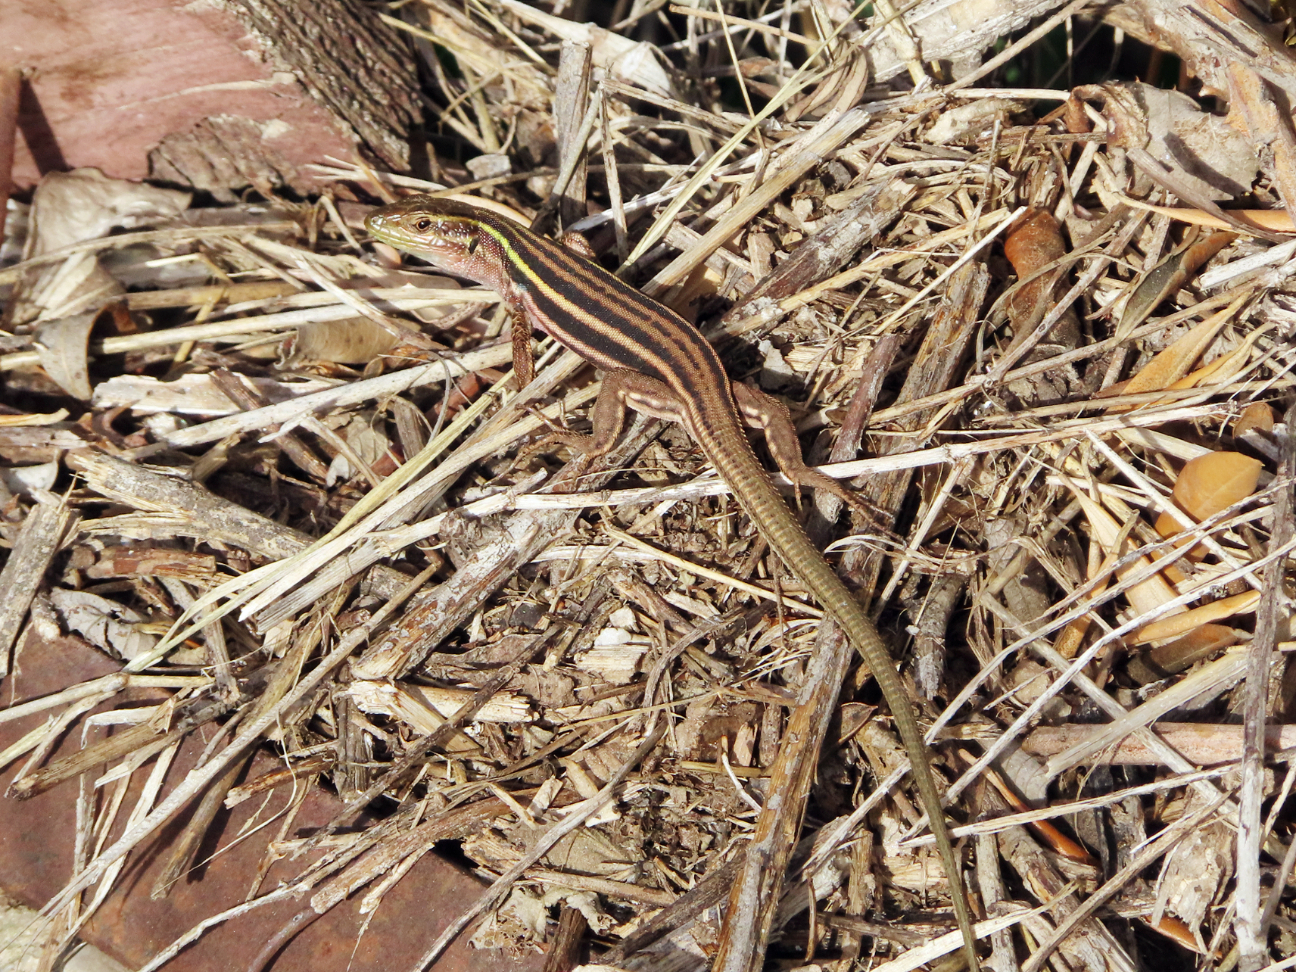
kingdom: Animalia
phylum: Chordata
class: Squamata
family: Lacertidae
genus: Podarcis
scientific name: Podarcis peloponnesiacus
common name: Peloponnese wall lizard
